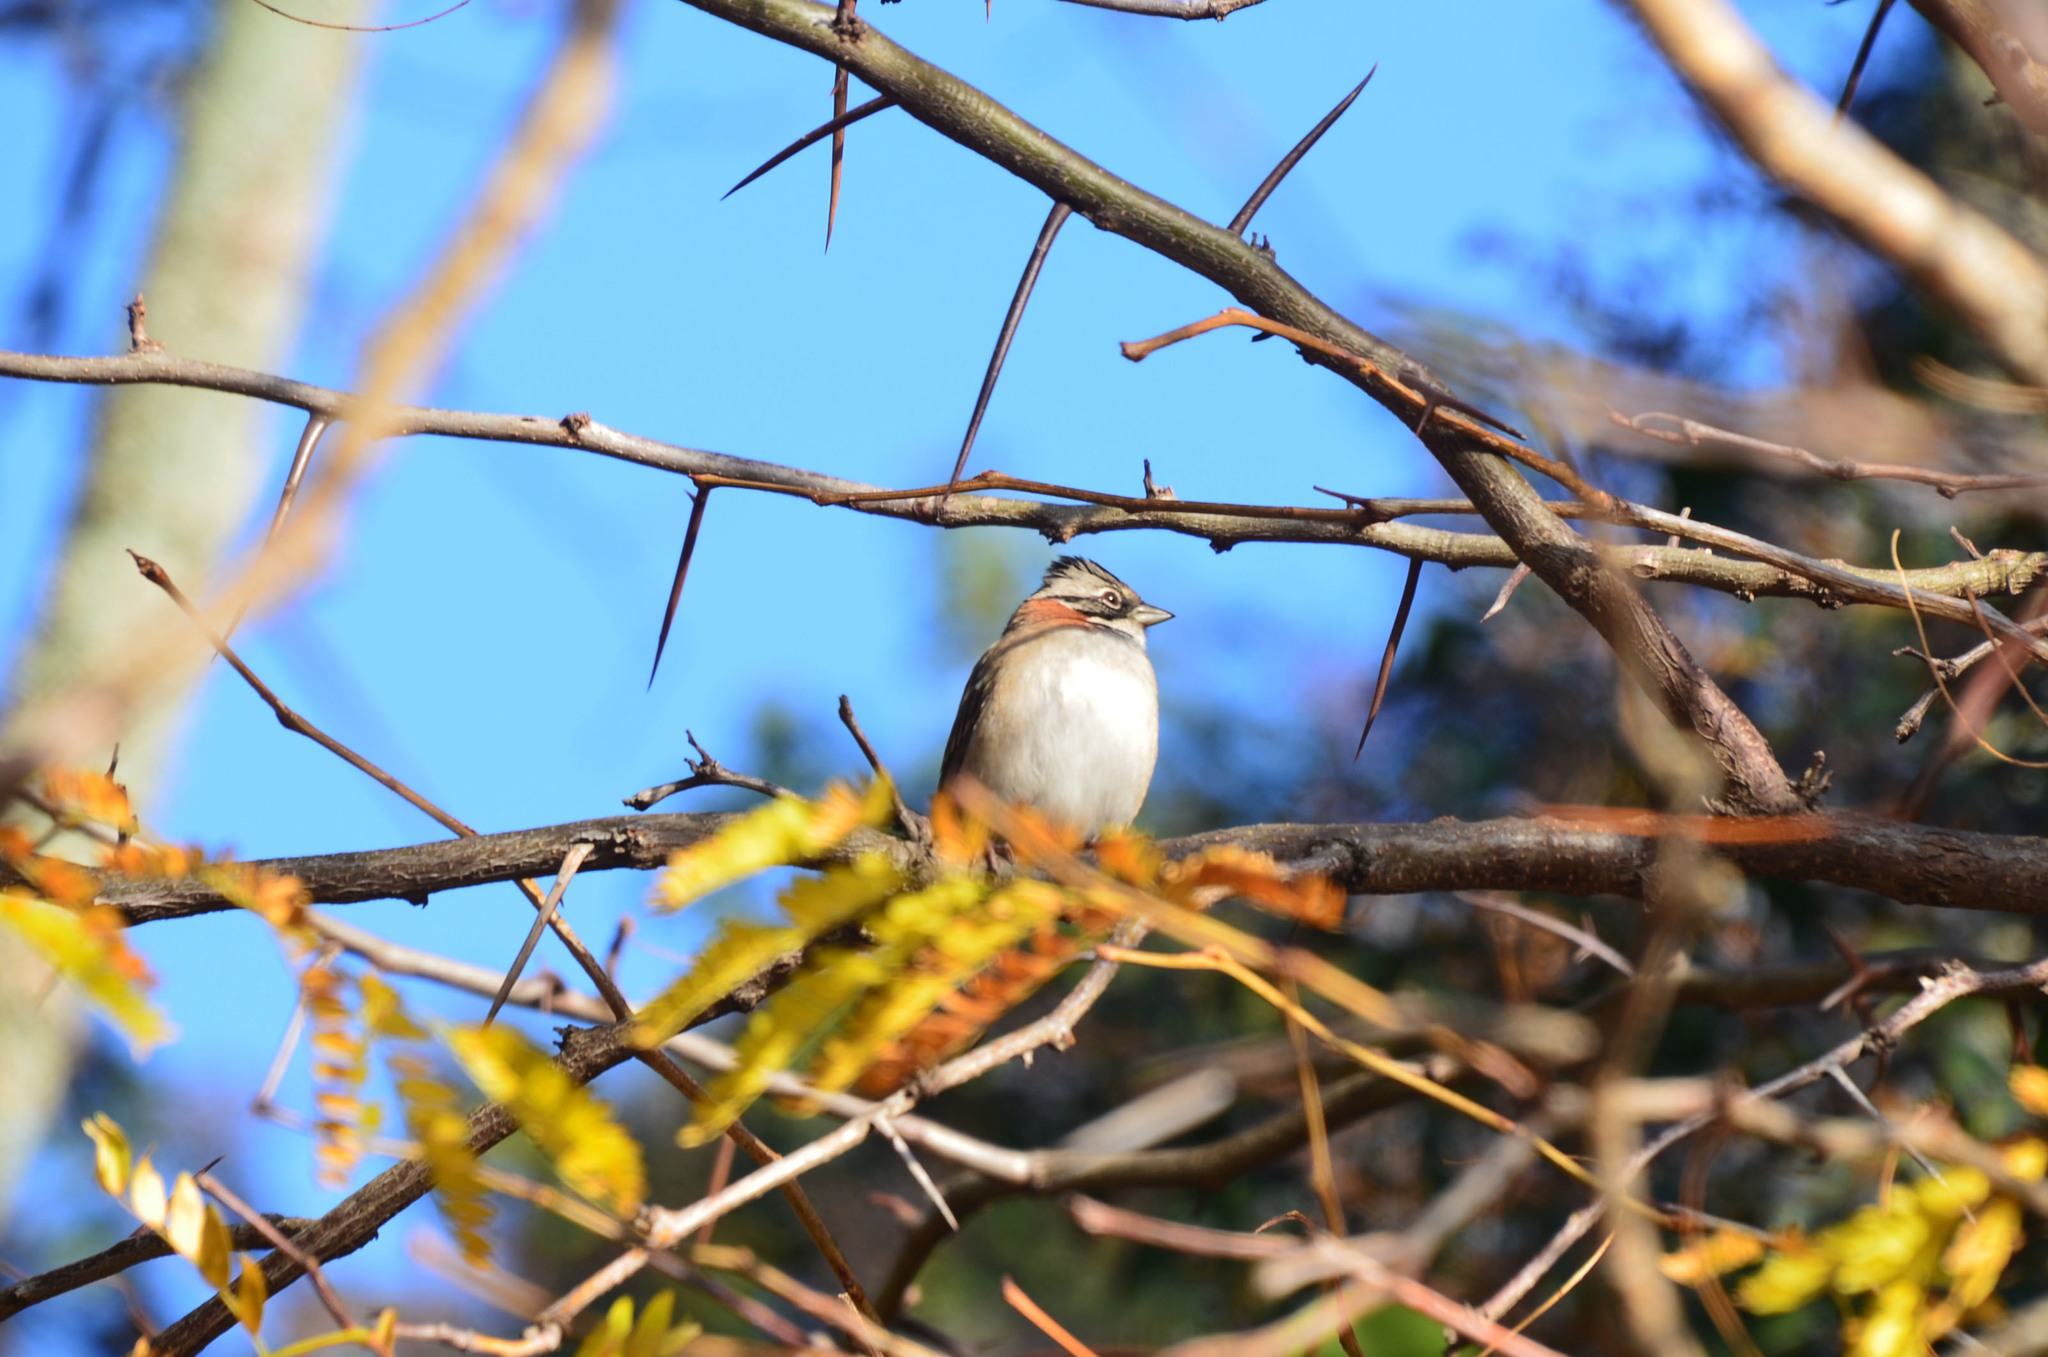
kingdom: Animalia
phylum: Chordata
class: Aves
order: Passeriformes
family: Passerellidae
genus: Zonotrichia
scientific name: Zonotrichia capensis
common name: Rufous-collared sparrow
